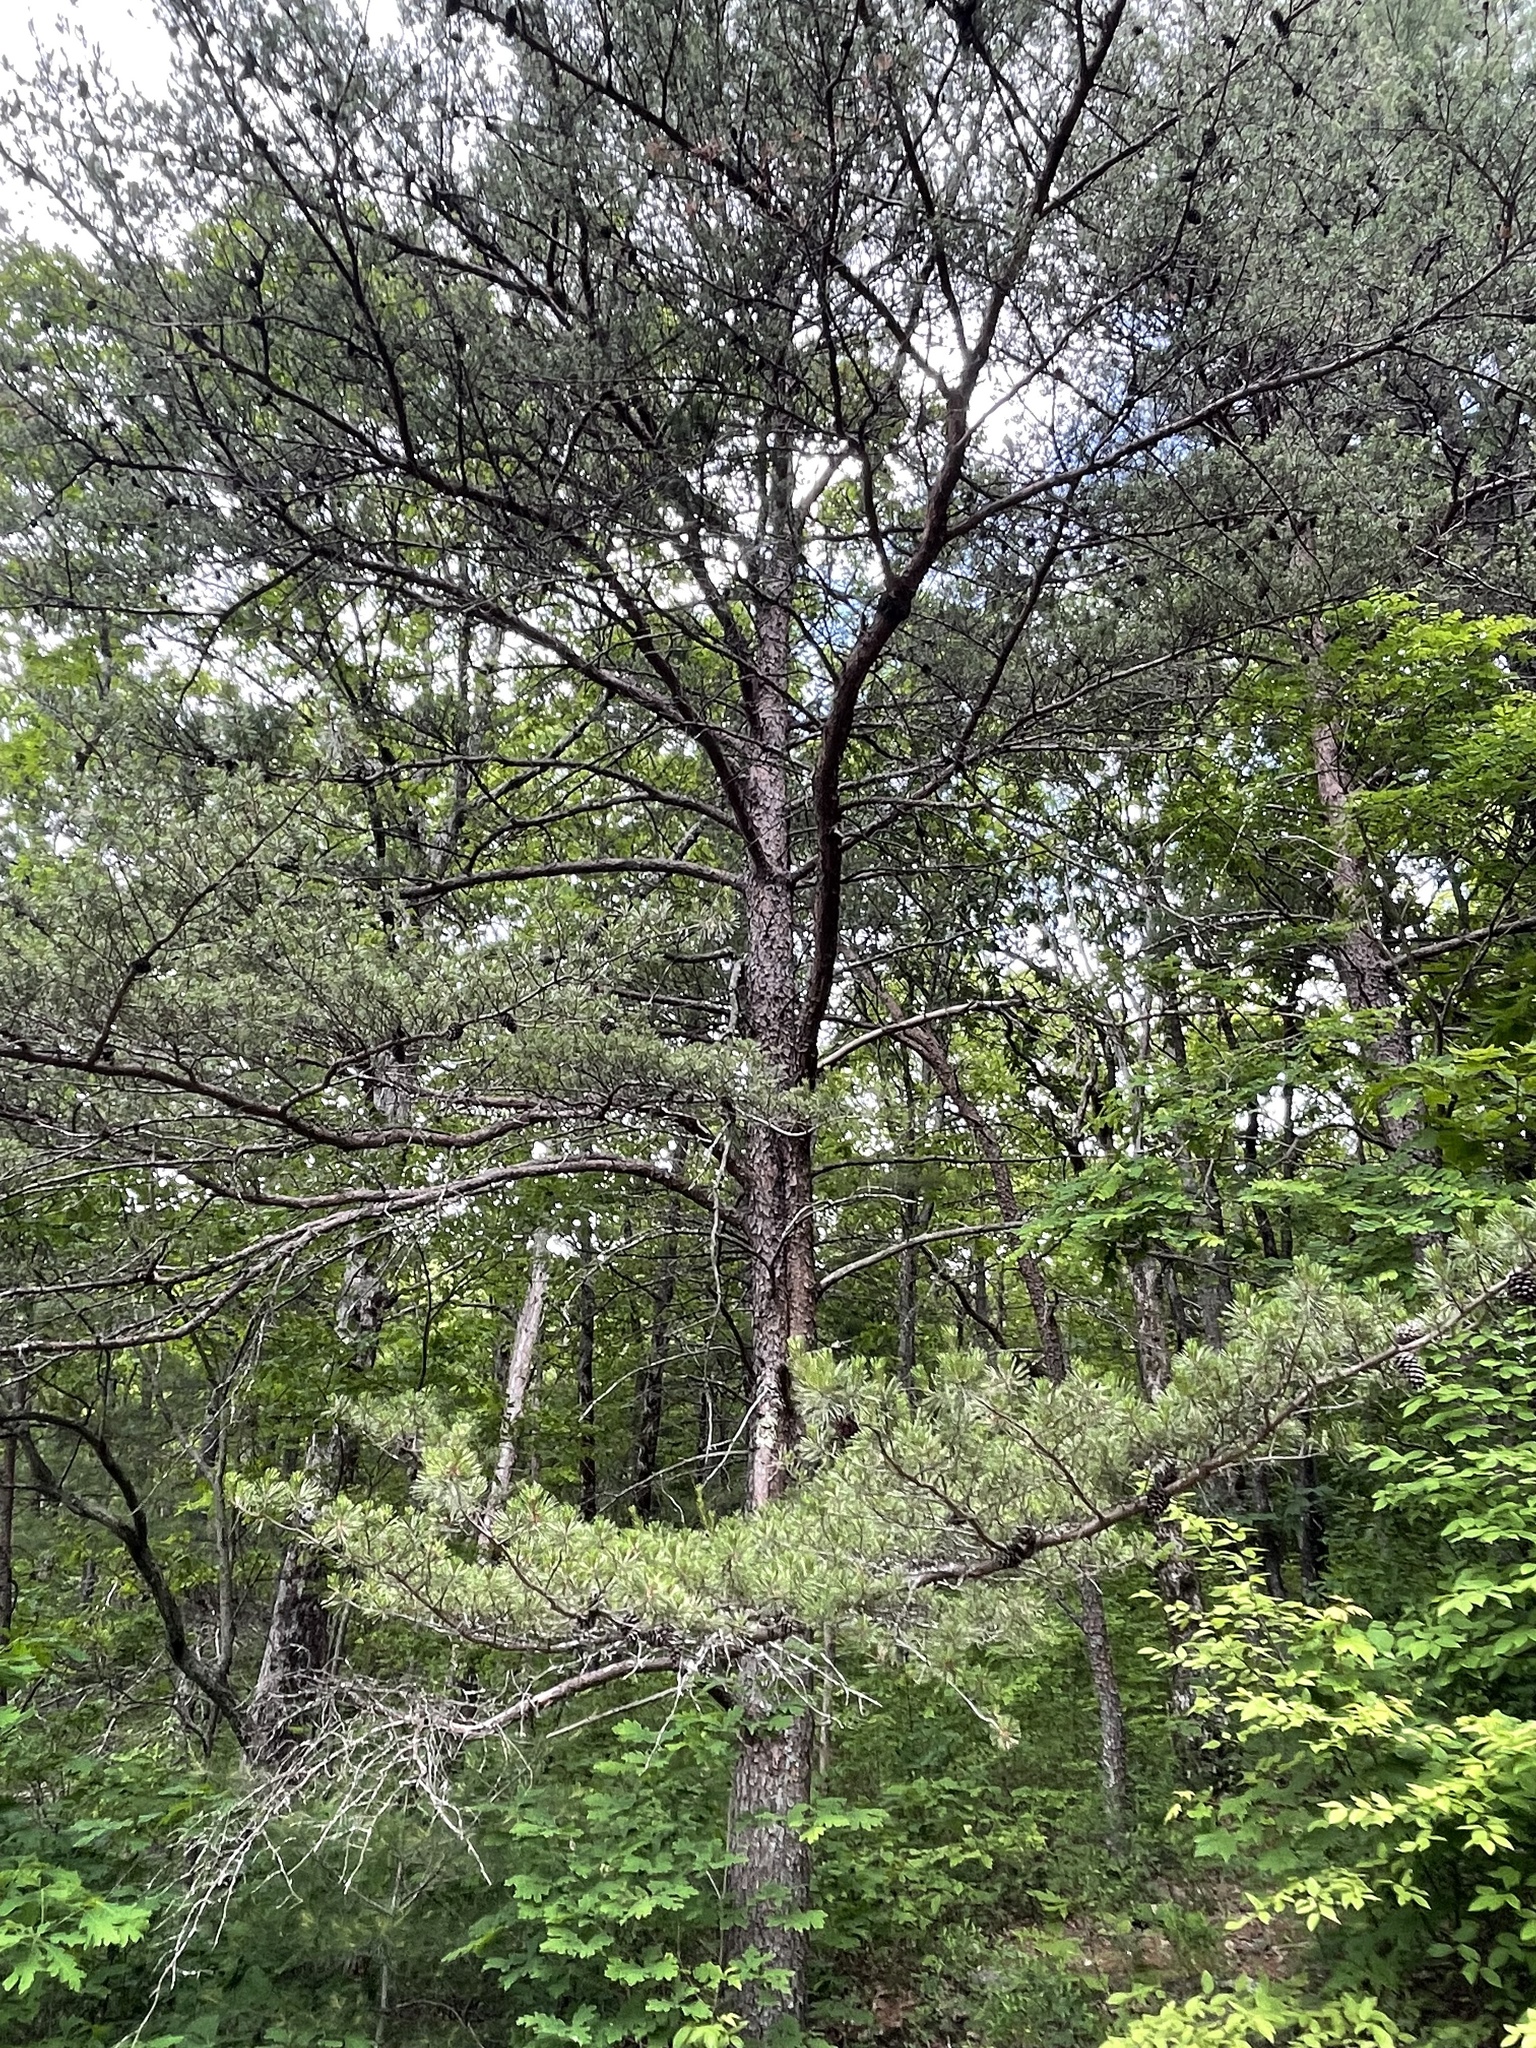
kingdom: Plantae
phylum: Tracheophyta
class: Pinopsida
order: Pinales
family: Pinaceae
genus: Pinus
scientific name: Pinus virginiana
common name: Scrub pine
